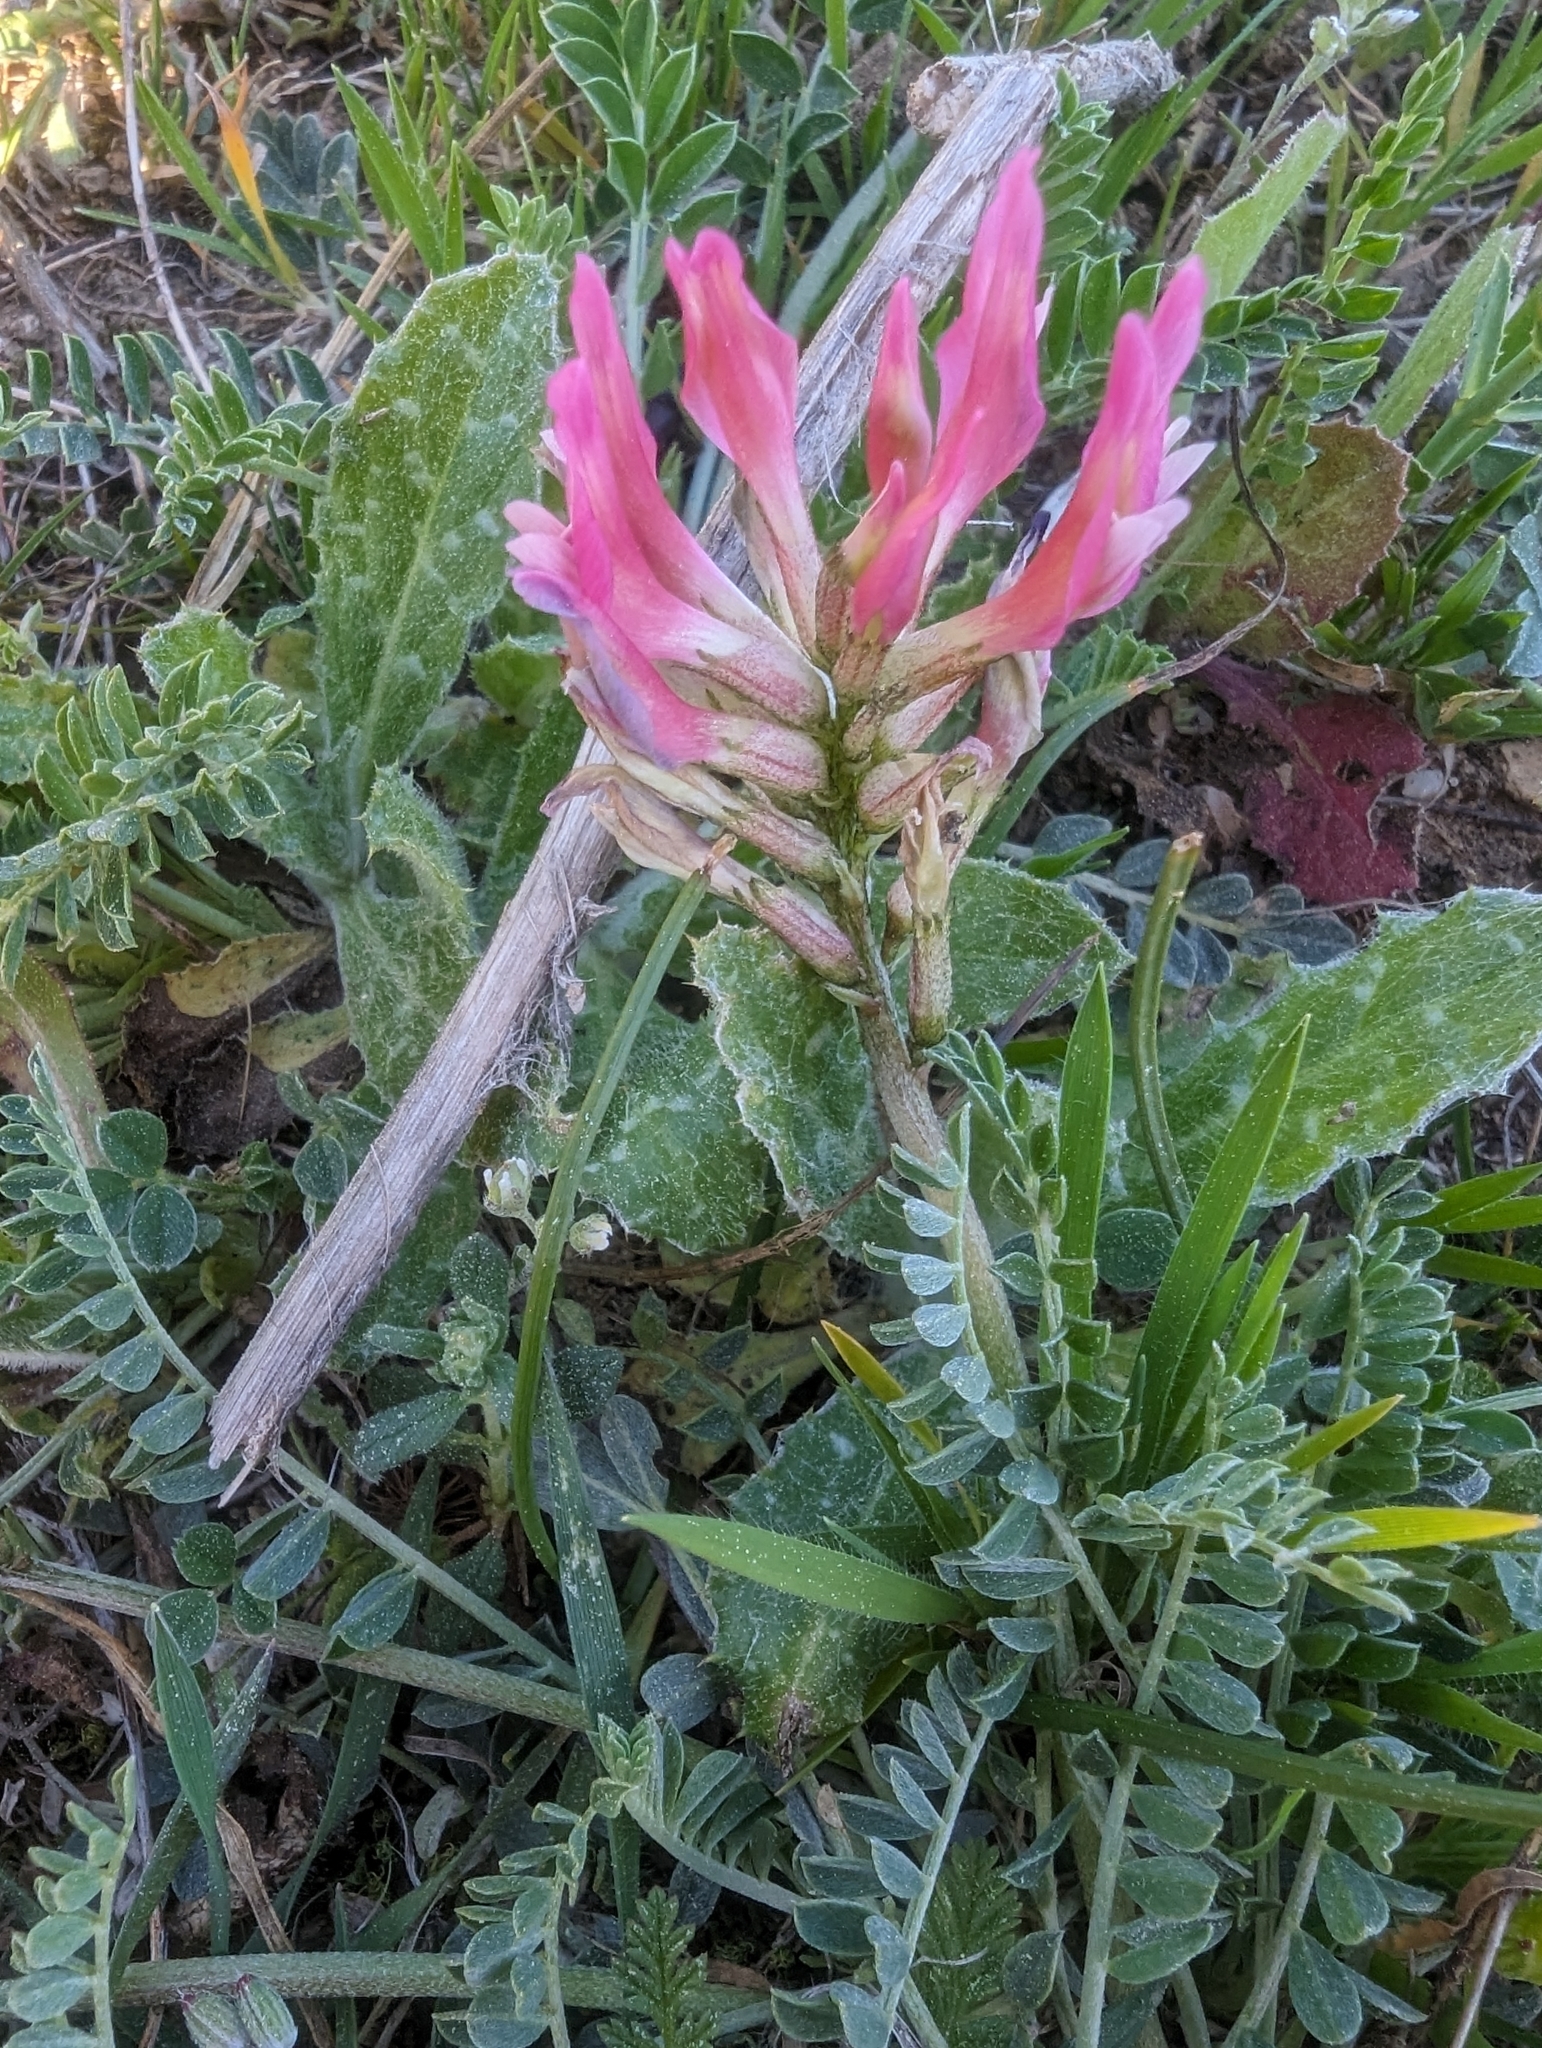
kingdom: Plantae
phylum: Tracheophyta
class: Magnoliopsida
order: Fabales
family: Fabaceae
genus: Astragalus
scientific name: Astragalus incanus
